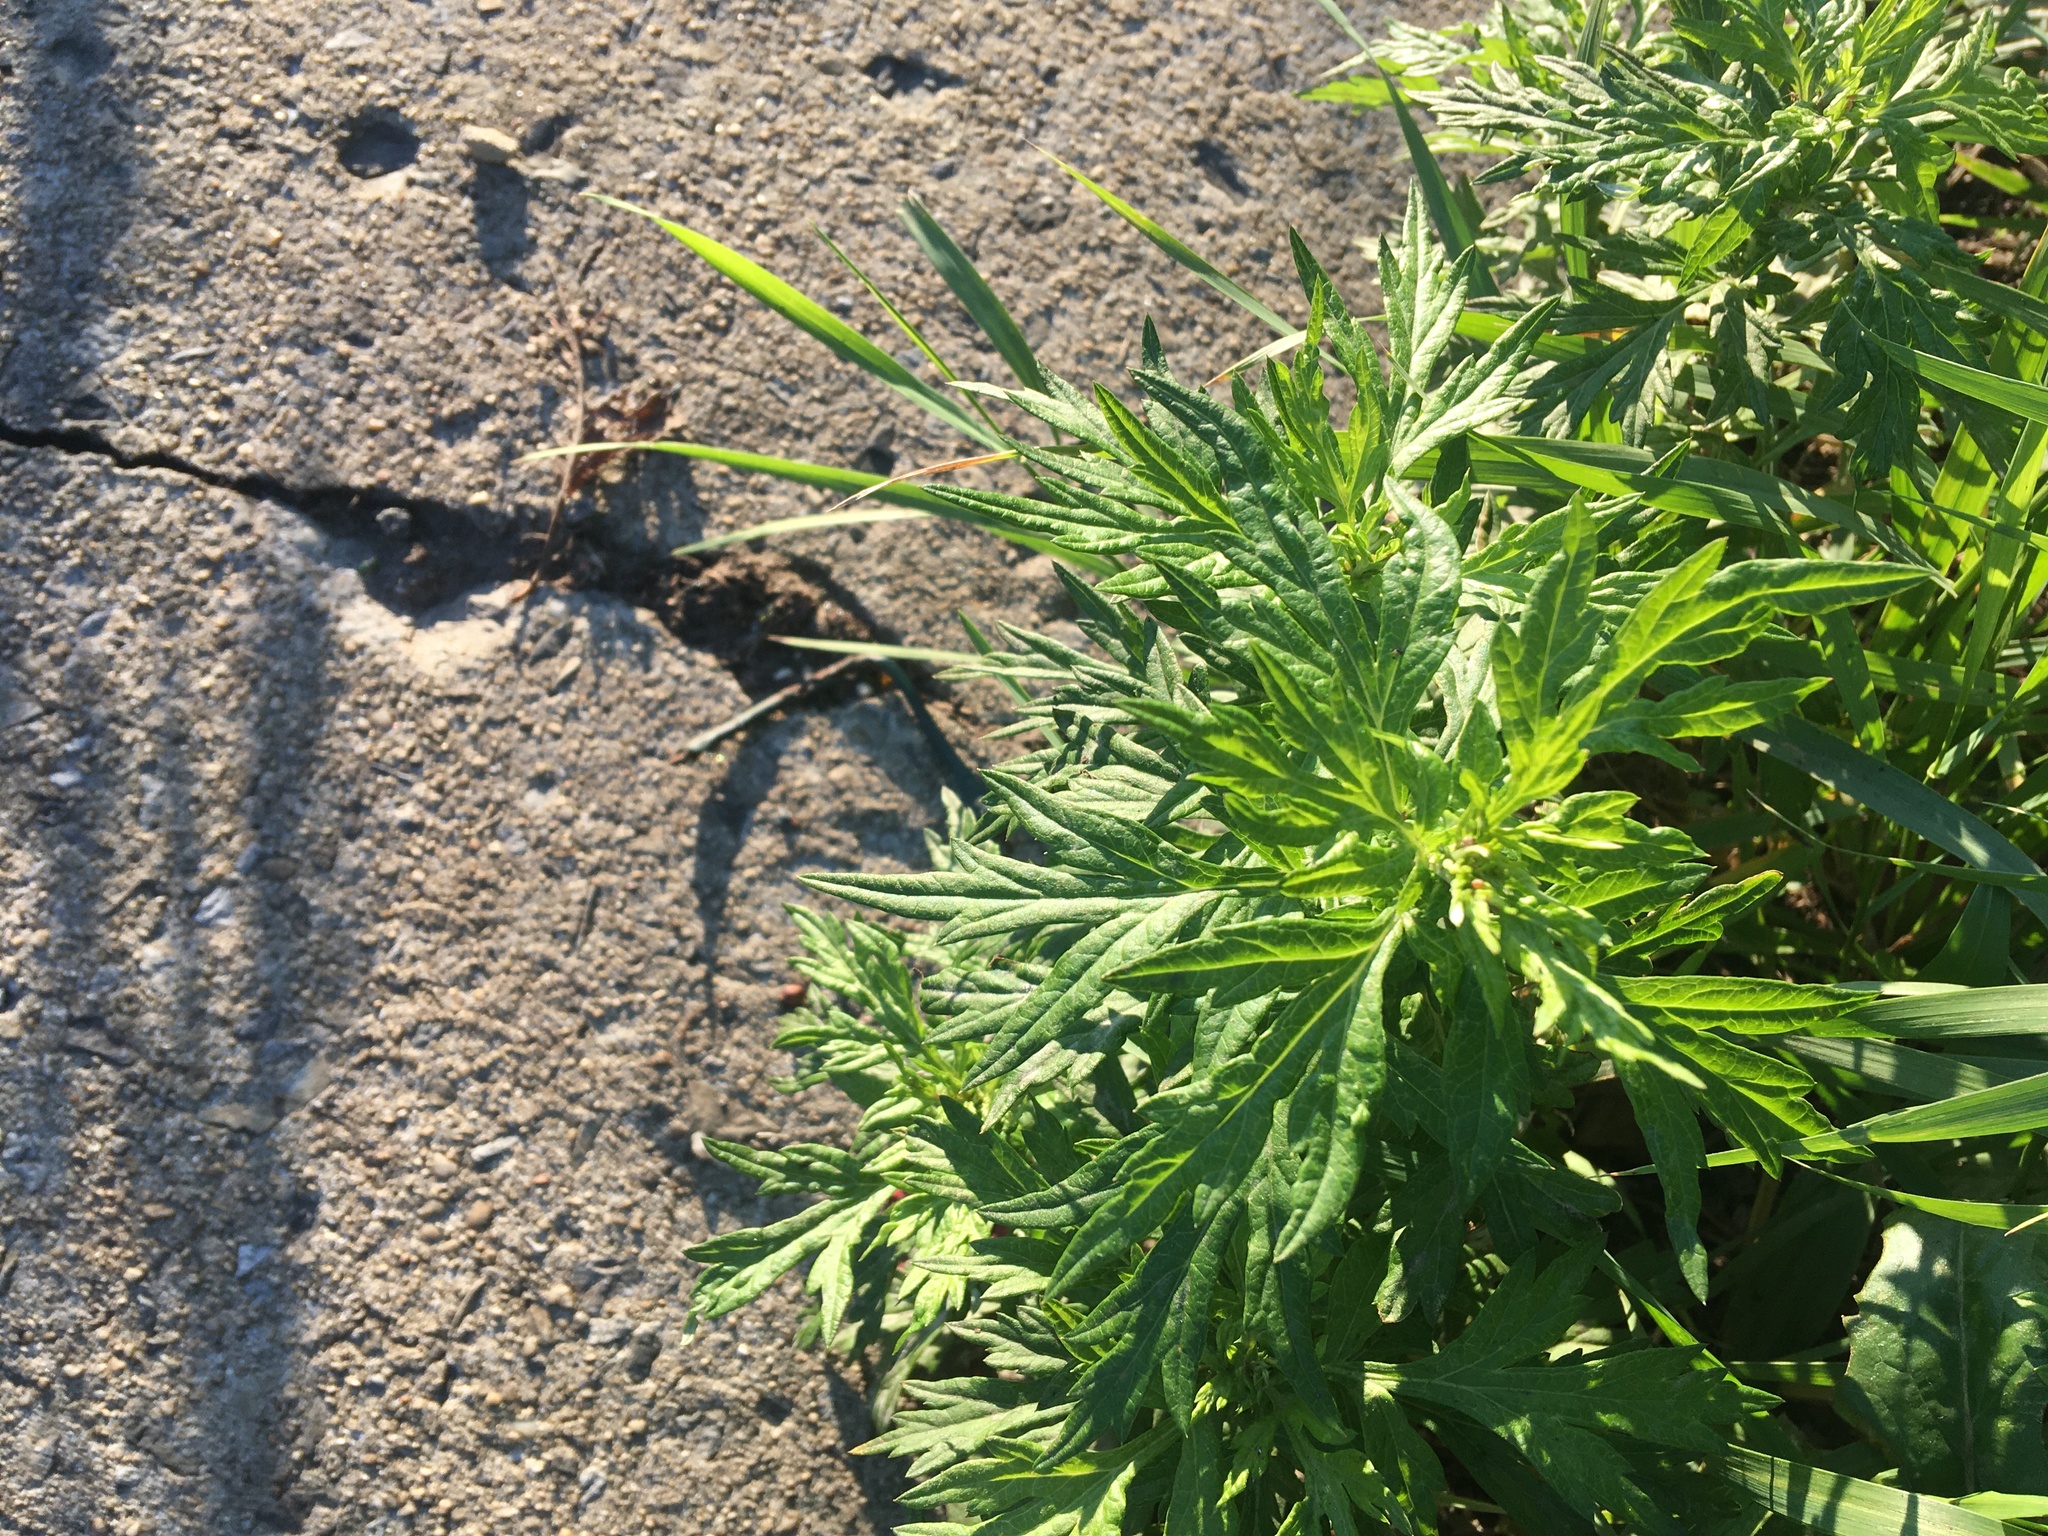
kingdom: Plantae
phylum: Tracheophyta
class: Magnoliopsida
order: Asterales
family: Asteraceae
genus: Artemisia
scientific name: Artemisia vulgaris
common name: Mugwort
